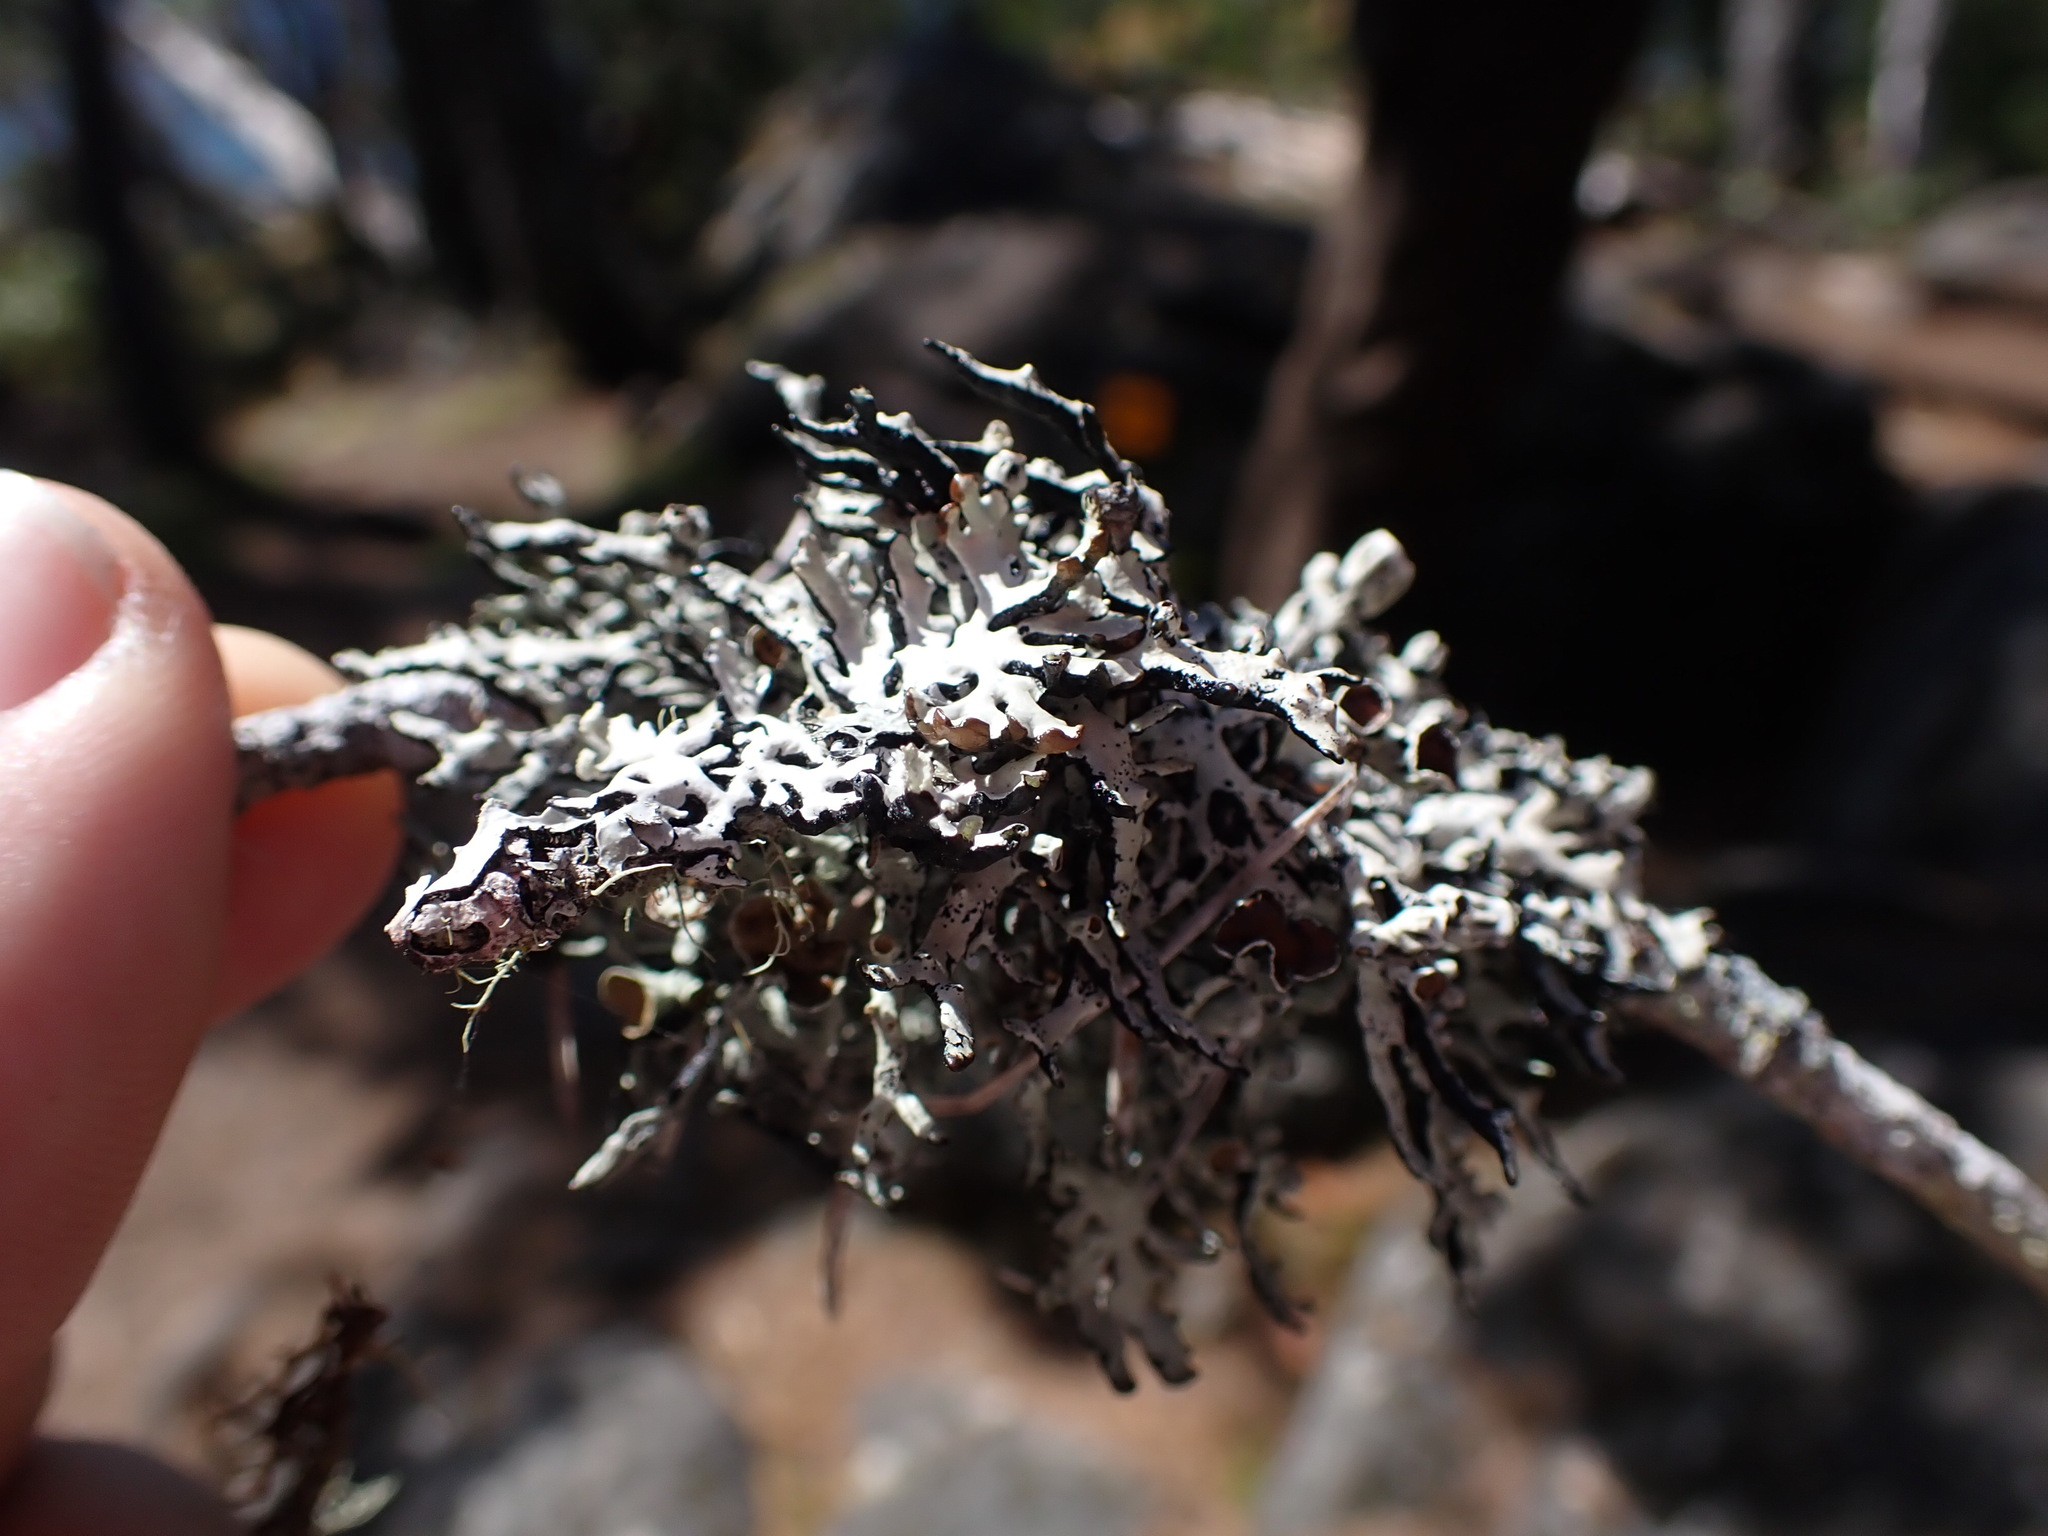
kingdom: Fungi
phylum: Ascomycota
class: Lecanoromycetes
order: Lecanorales
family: Parmeliaceae
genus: Hypogymnia
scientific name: Hypogymnia heterophylla
